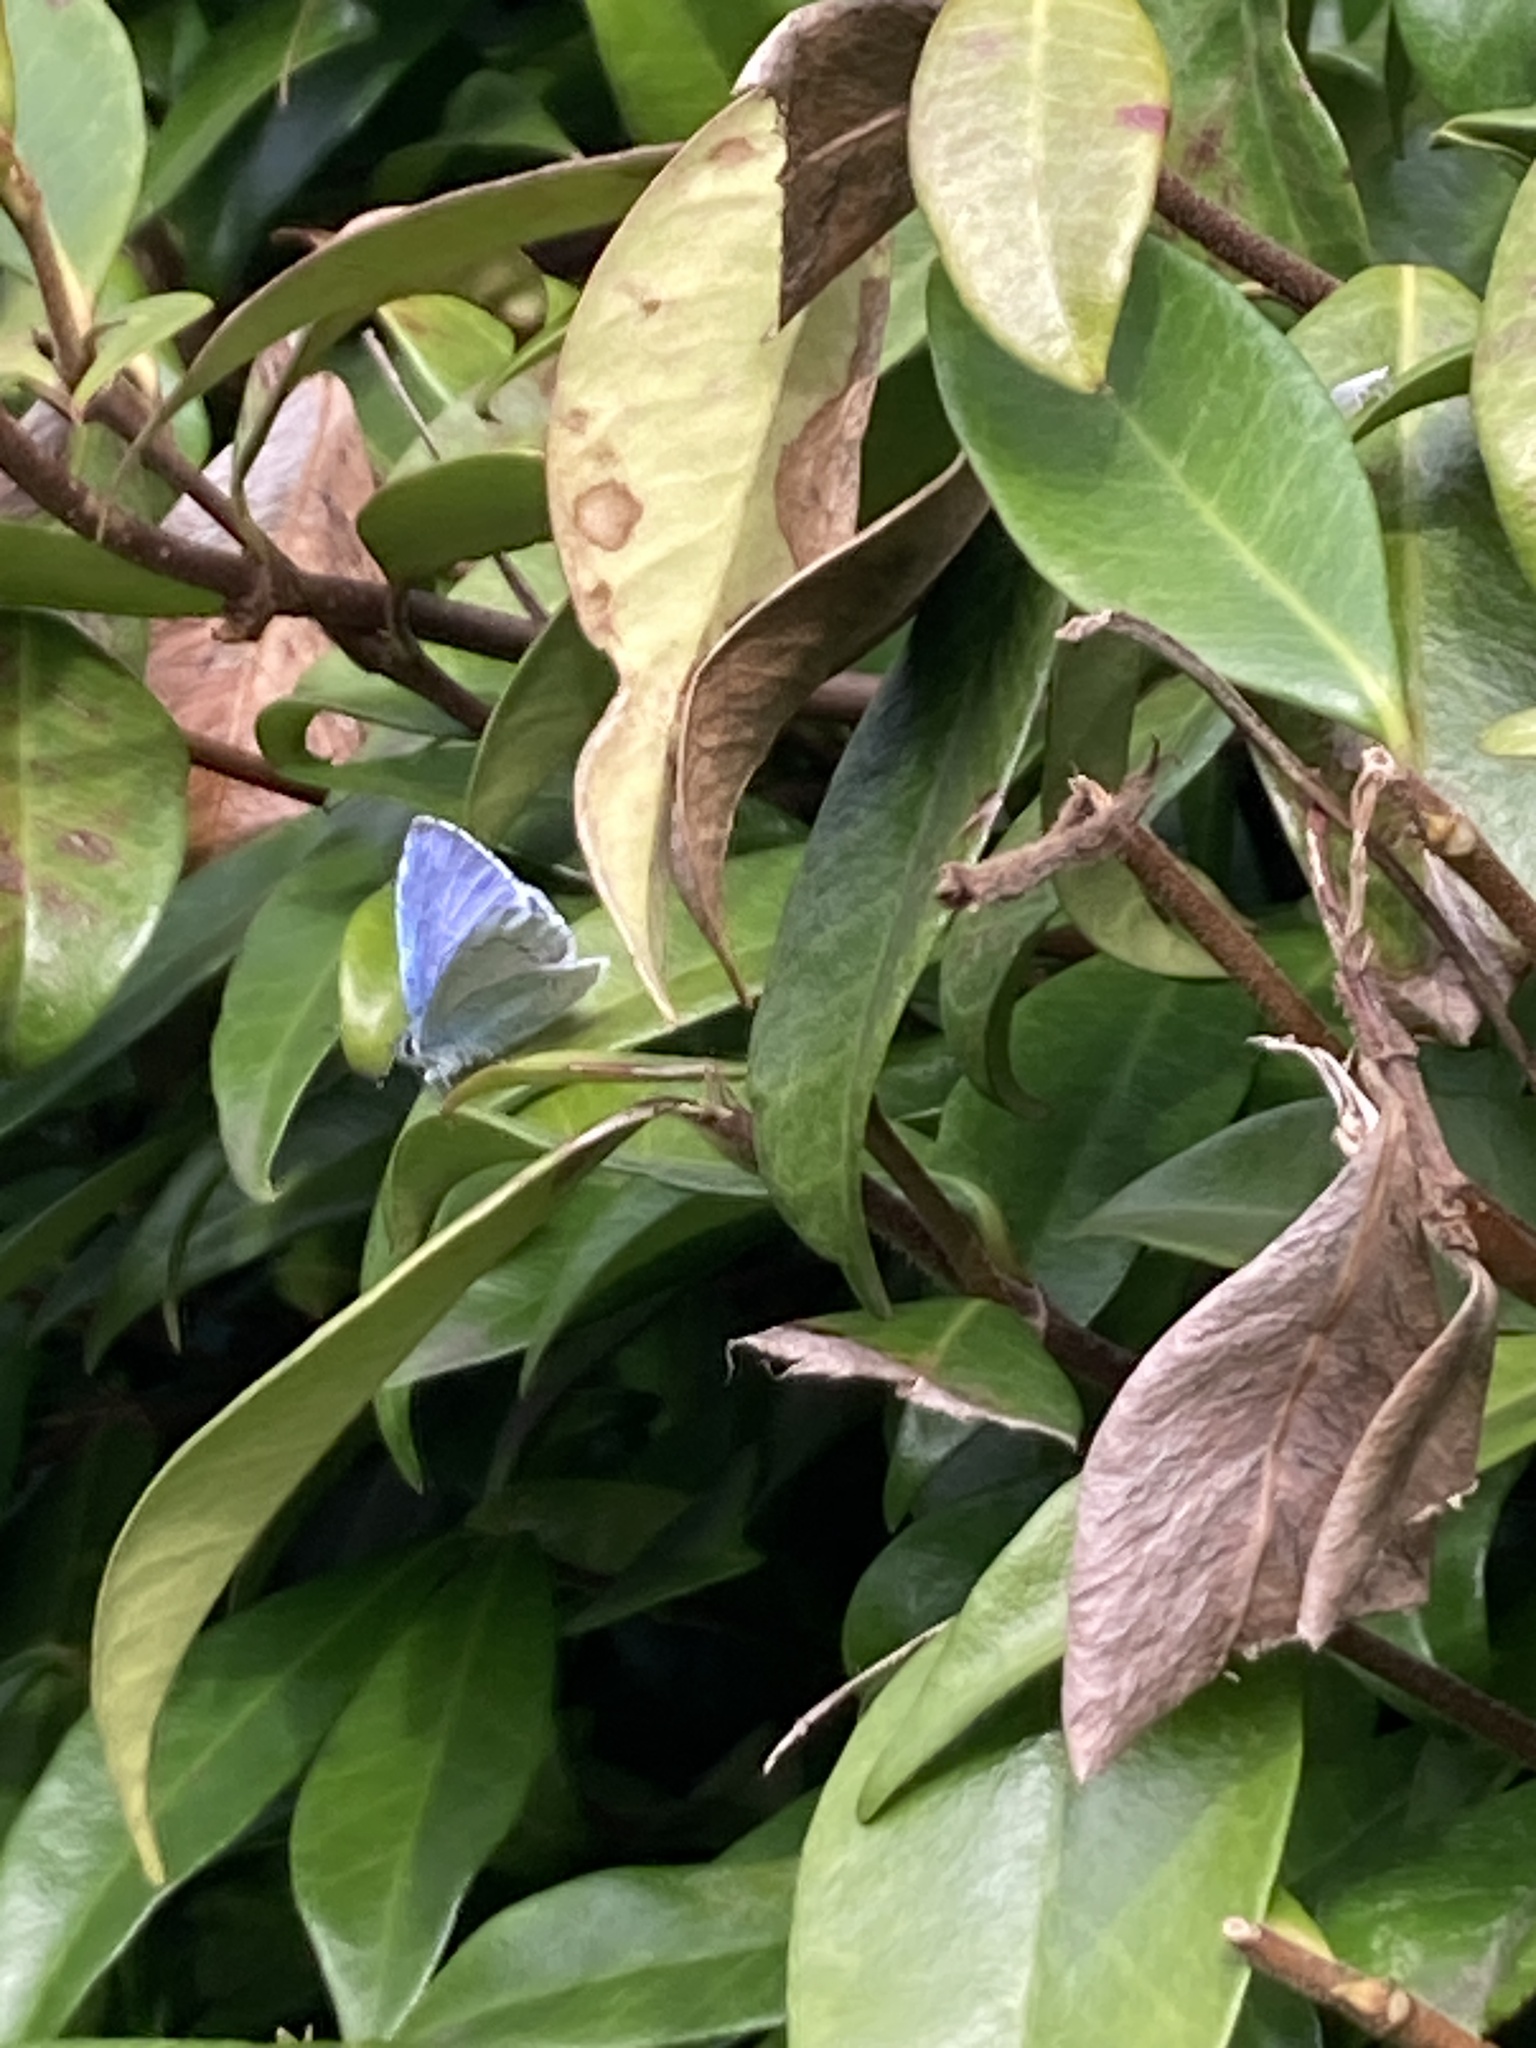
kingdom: Animalia
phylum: Arthropoda
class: Insecta
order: Lepidoptera
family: Lycaenidae
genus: Celastrina
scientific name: Celastrina argiolus
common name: Holly blue
